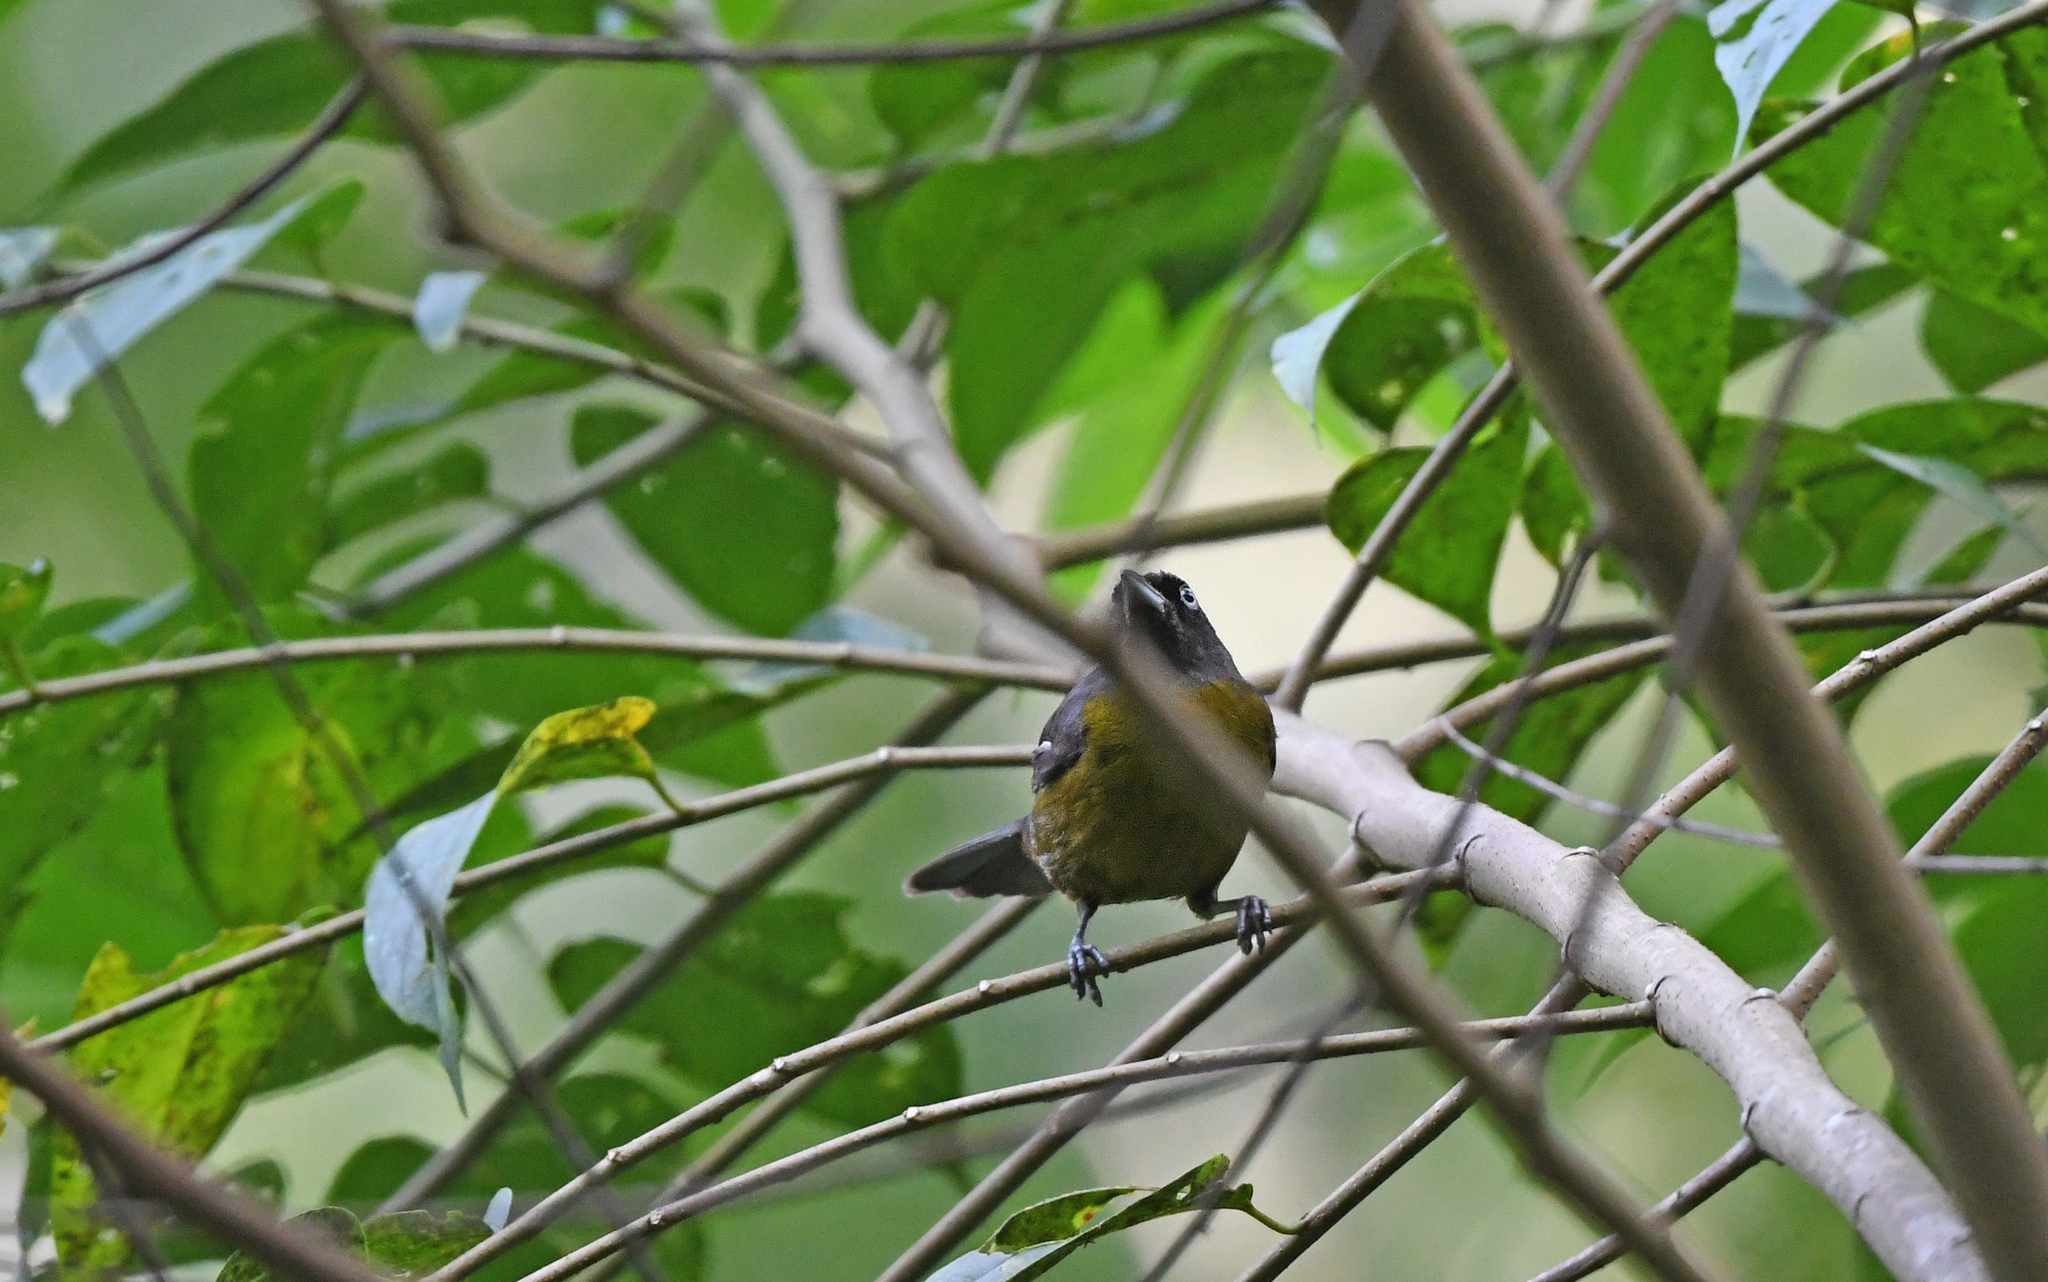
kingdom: Animalia
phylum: Chordata
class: Aves
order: Passeriformes
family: Mitrospingidae
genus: Mitrospingus
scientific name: Mitrospingus cassinii
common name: Dusky-faced tanager
